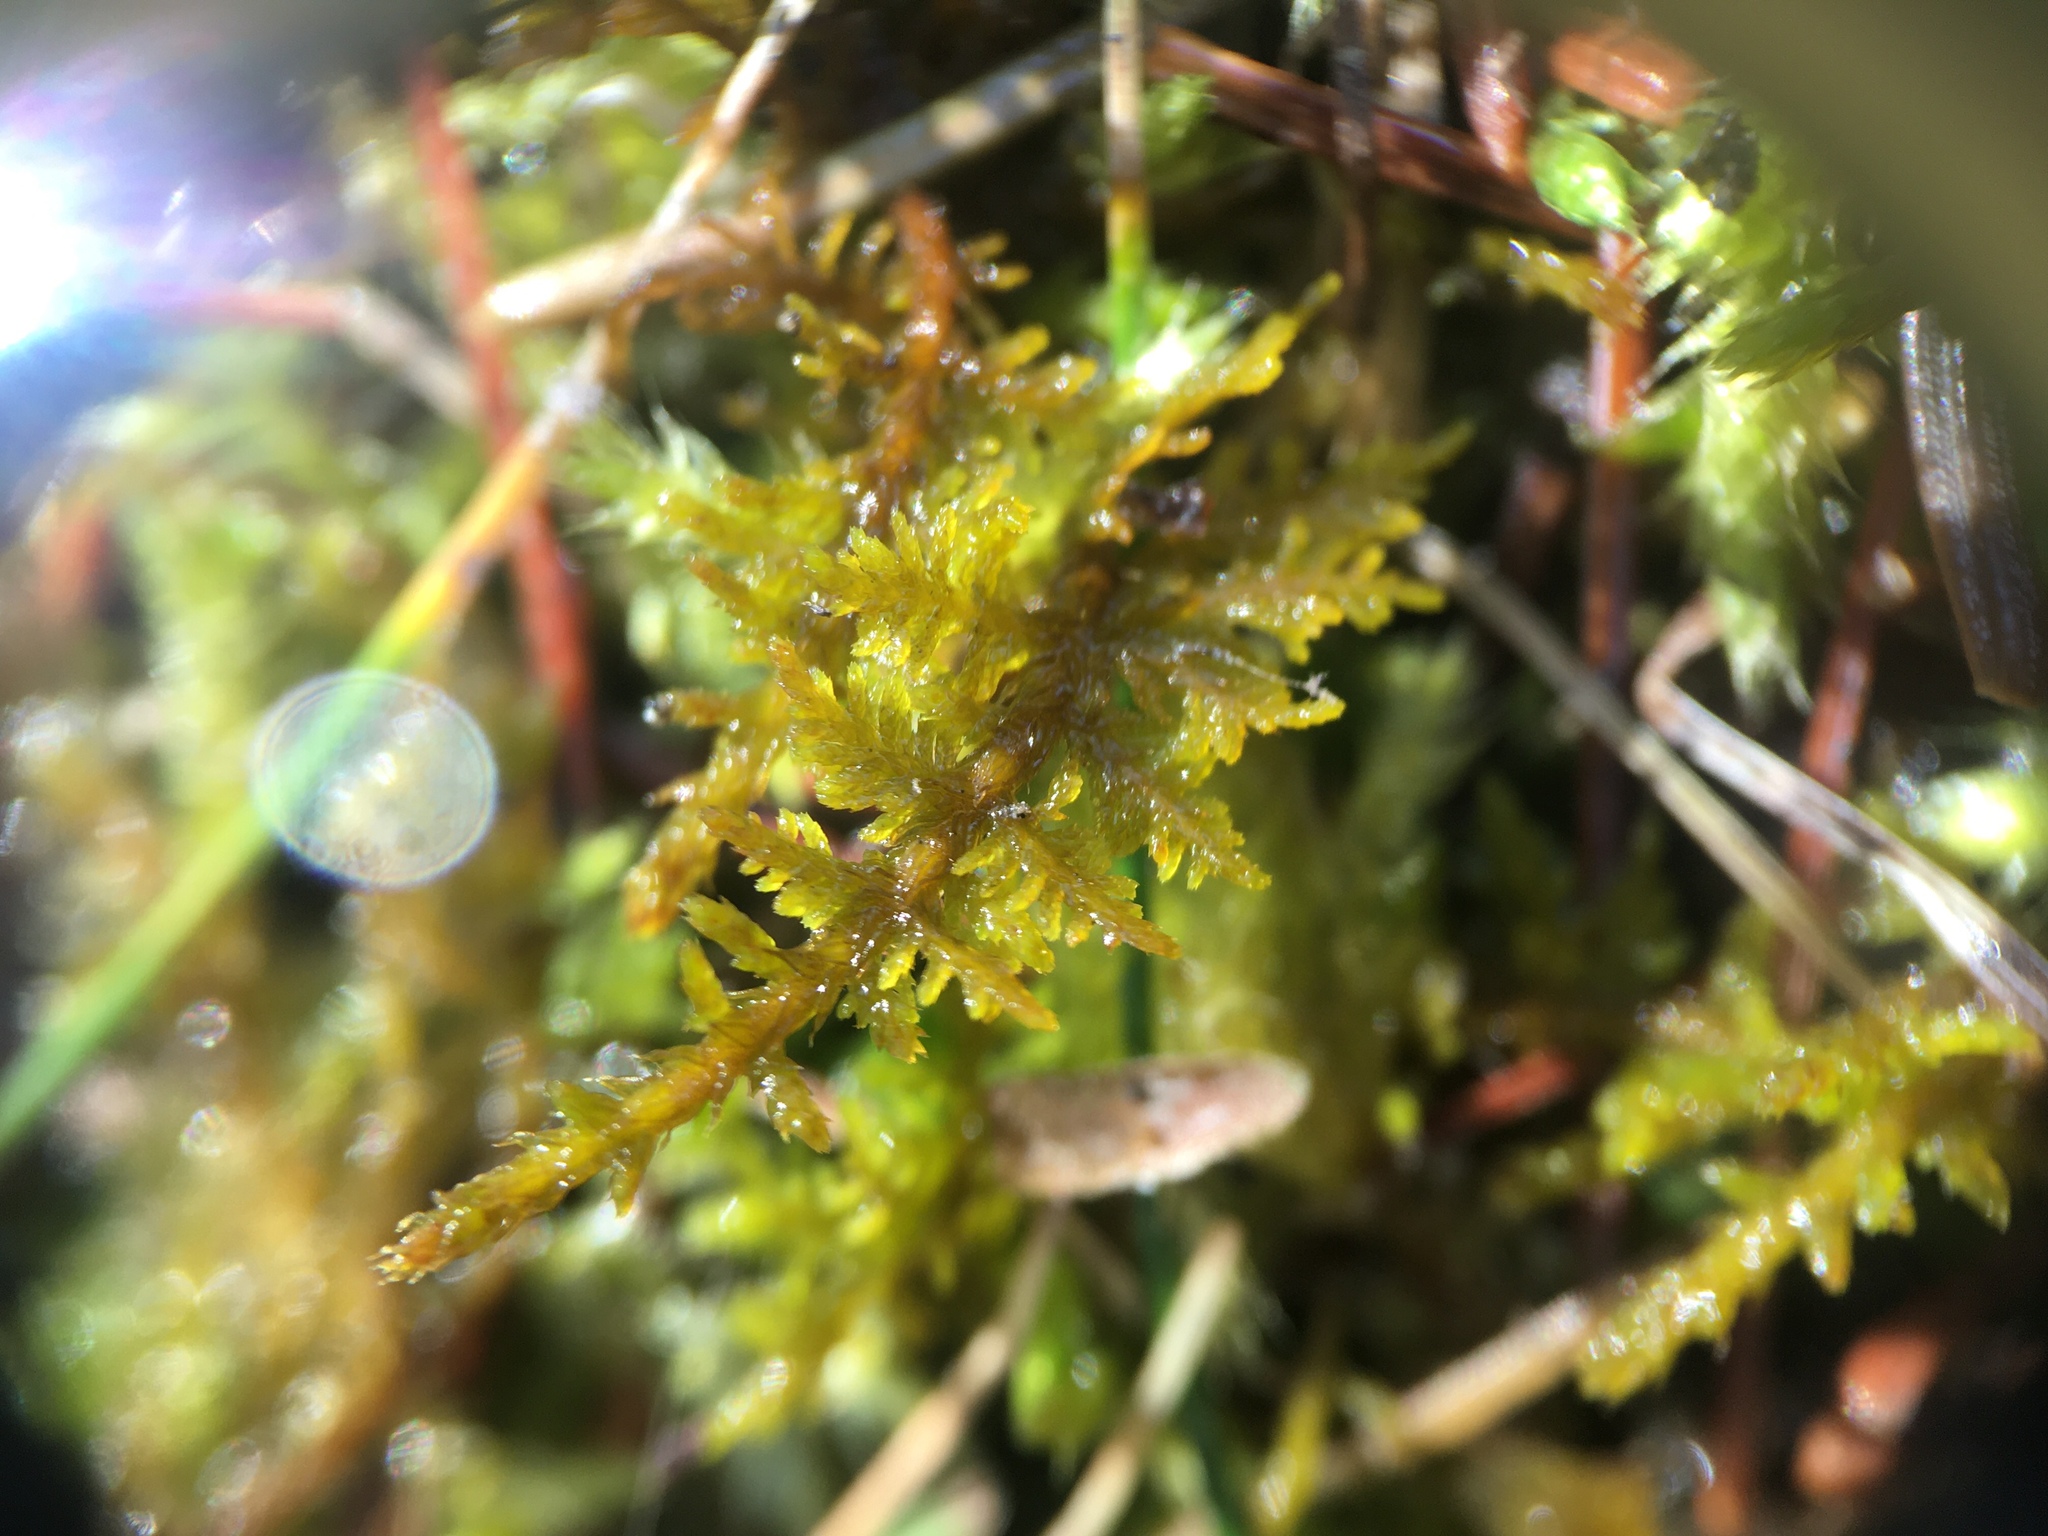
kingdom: Plantae
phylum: Bryophyta
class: Bryopsida
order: Hypnales
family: Thuidiaceae
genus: Thuidium
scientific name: Thuidium delicatulum
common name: Delicate fern moss
